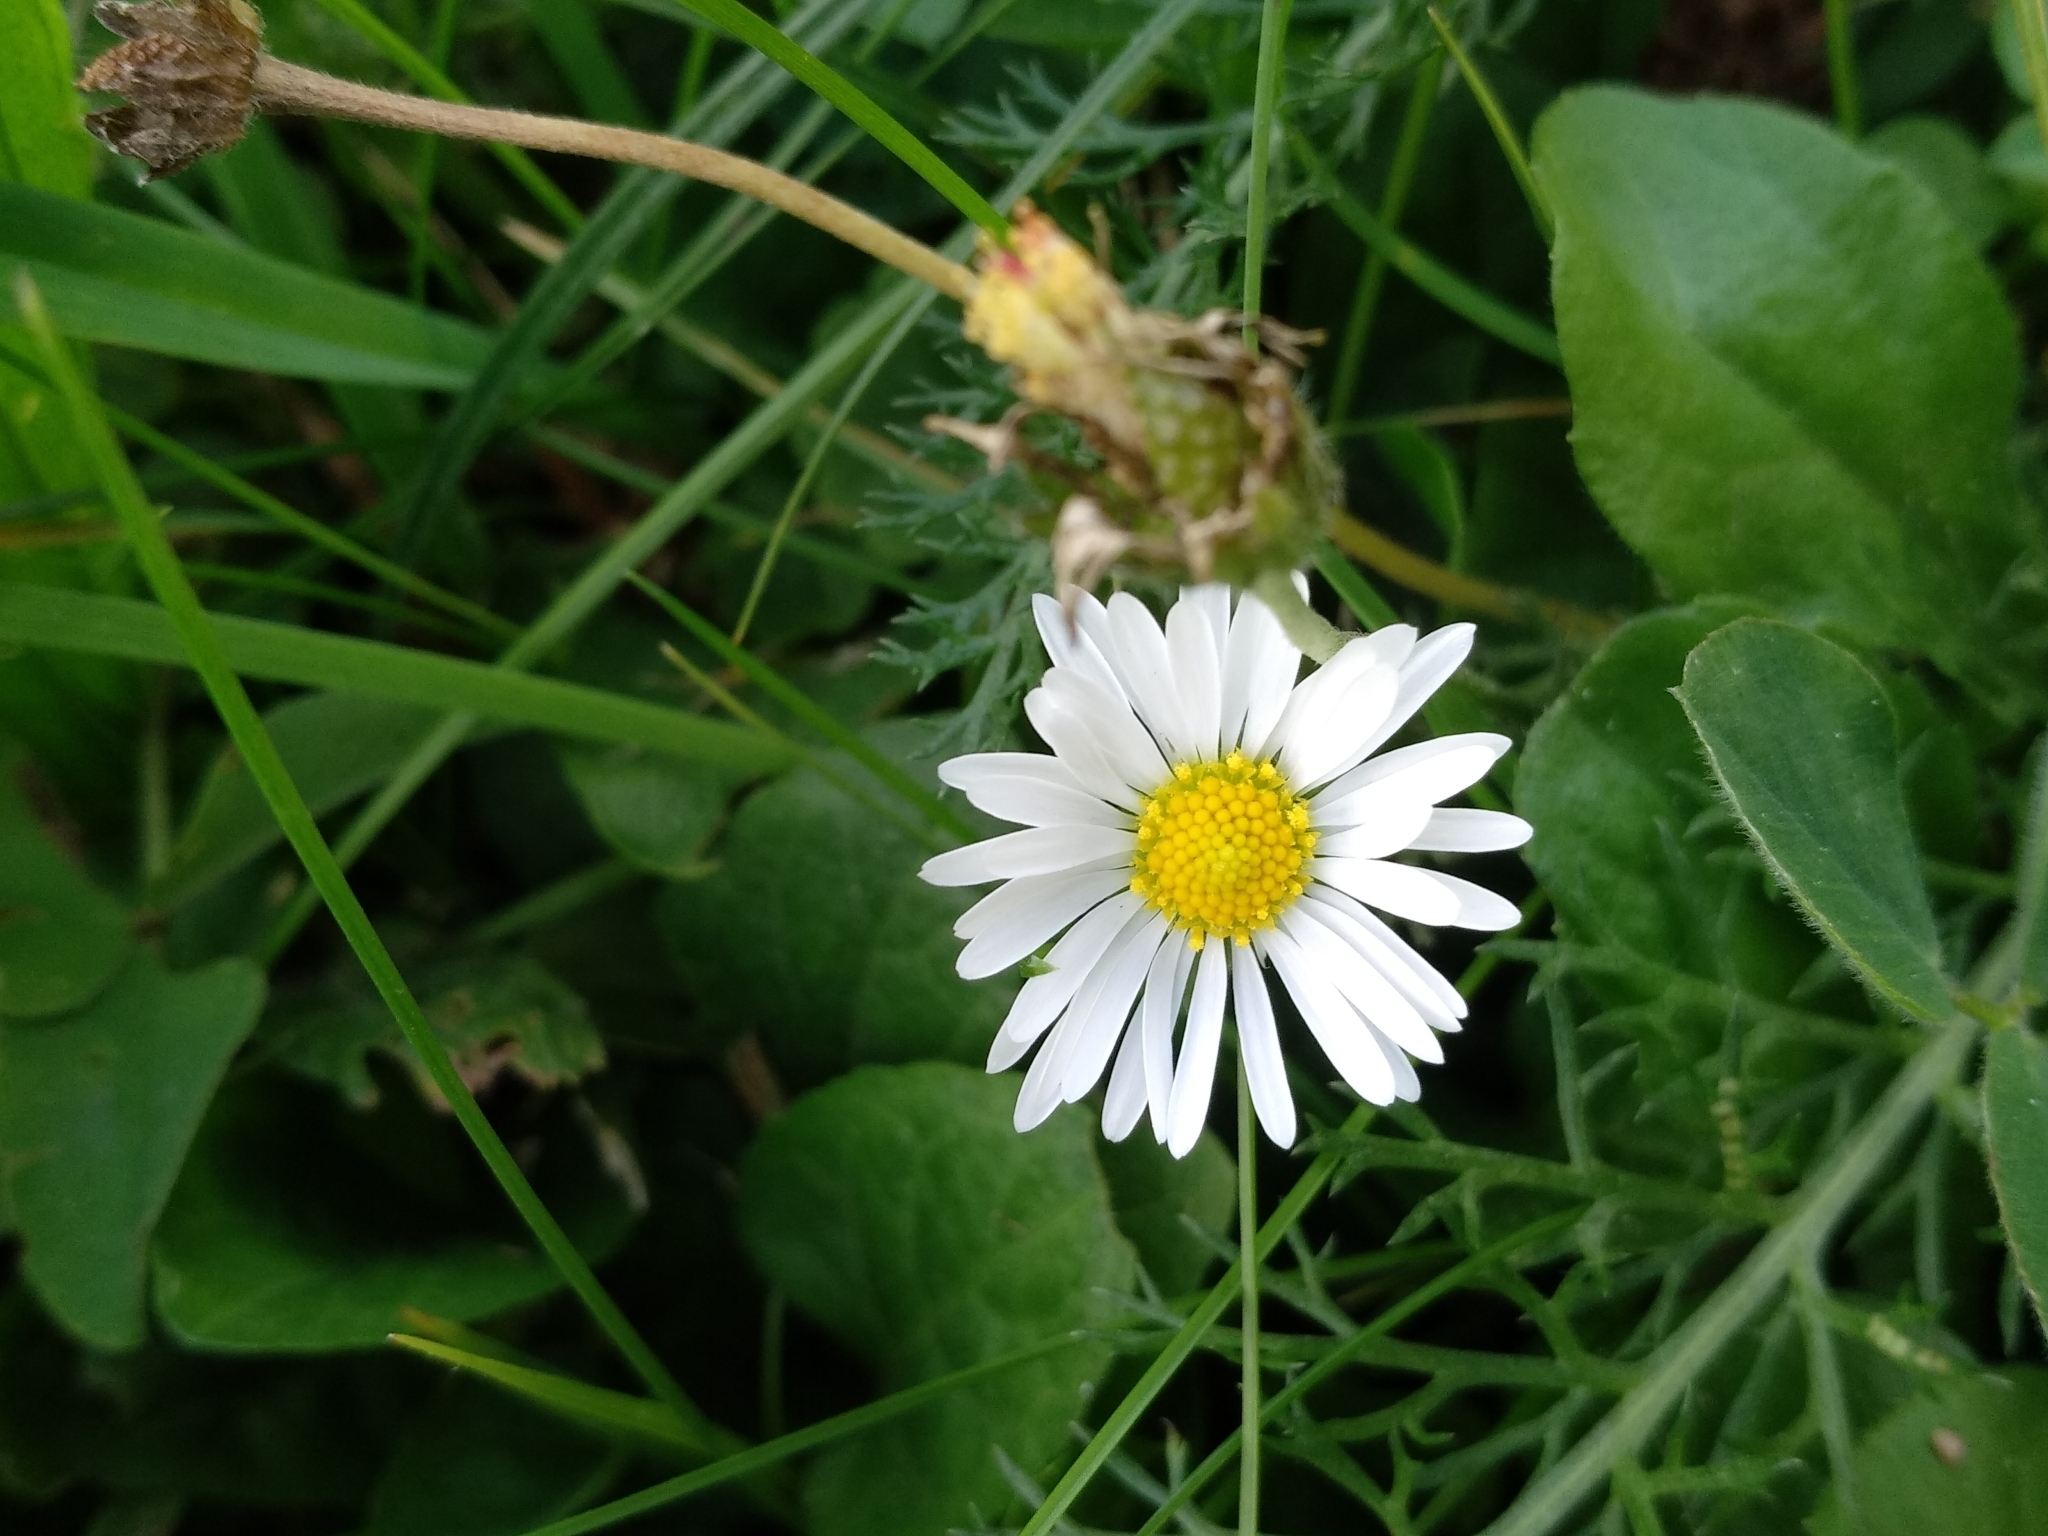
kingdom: Plantae
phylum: Tracheophyta
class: Magnoliopsida
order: Asterales
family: Asteraceae
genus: Bellis
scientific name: Bellis perennis
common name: Lawndaisy
